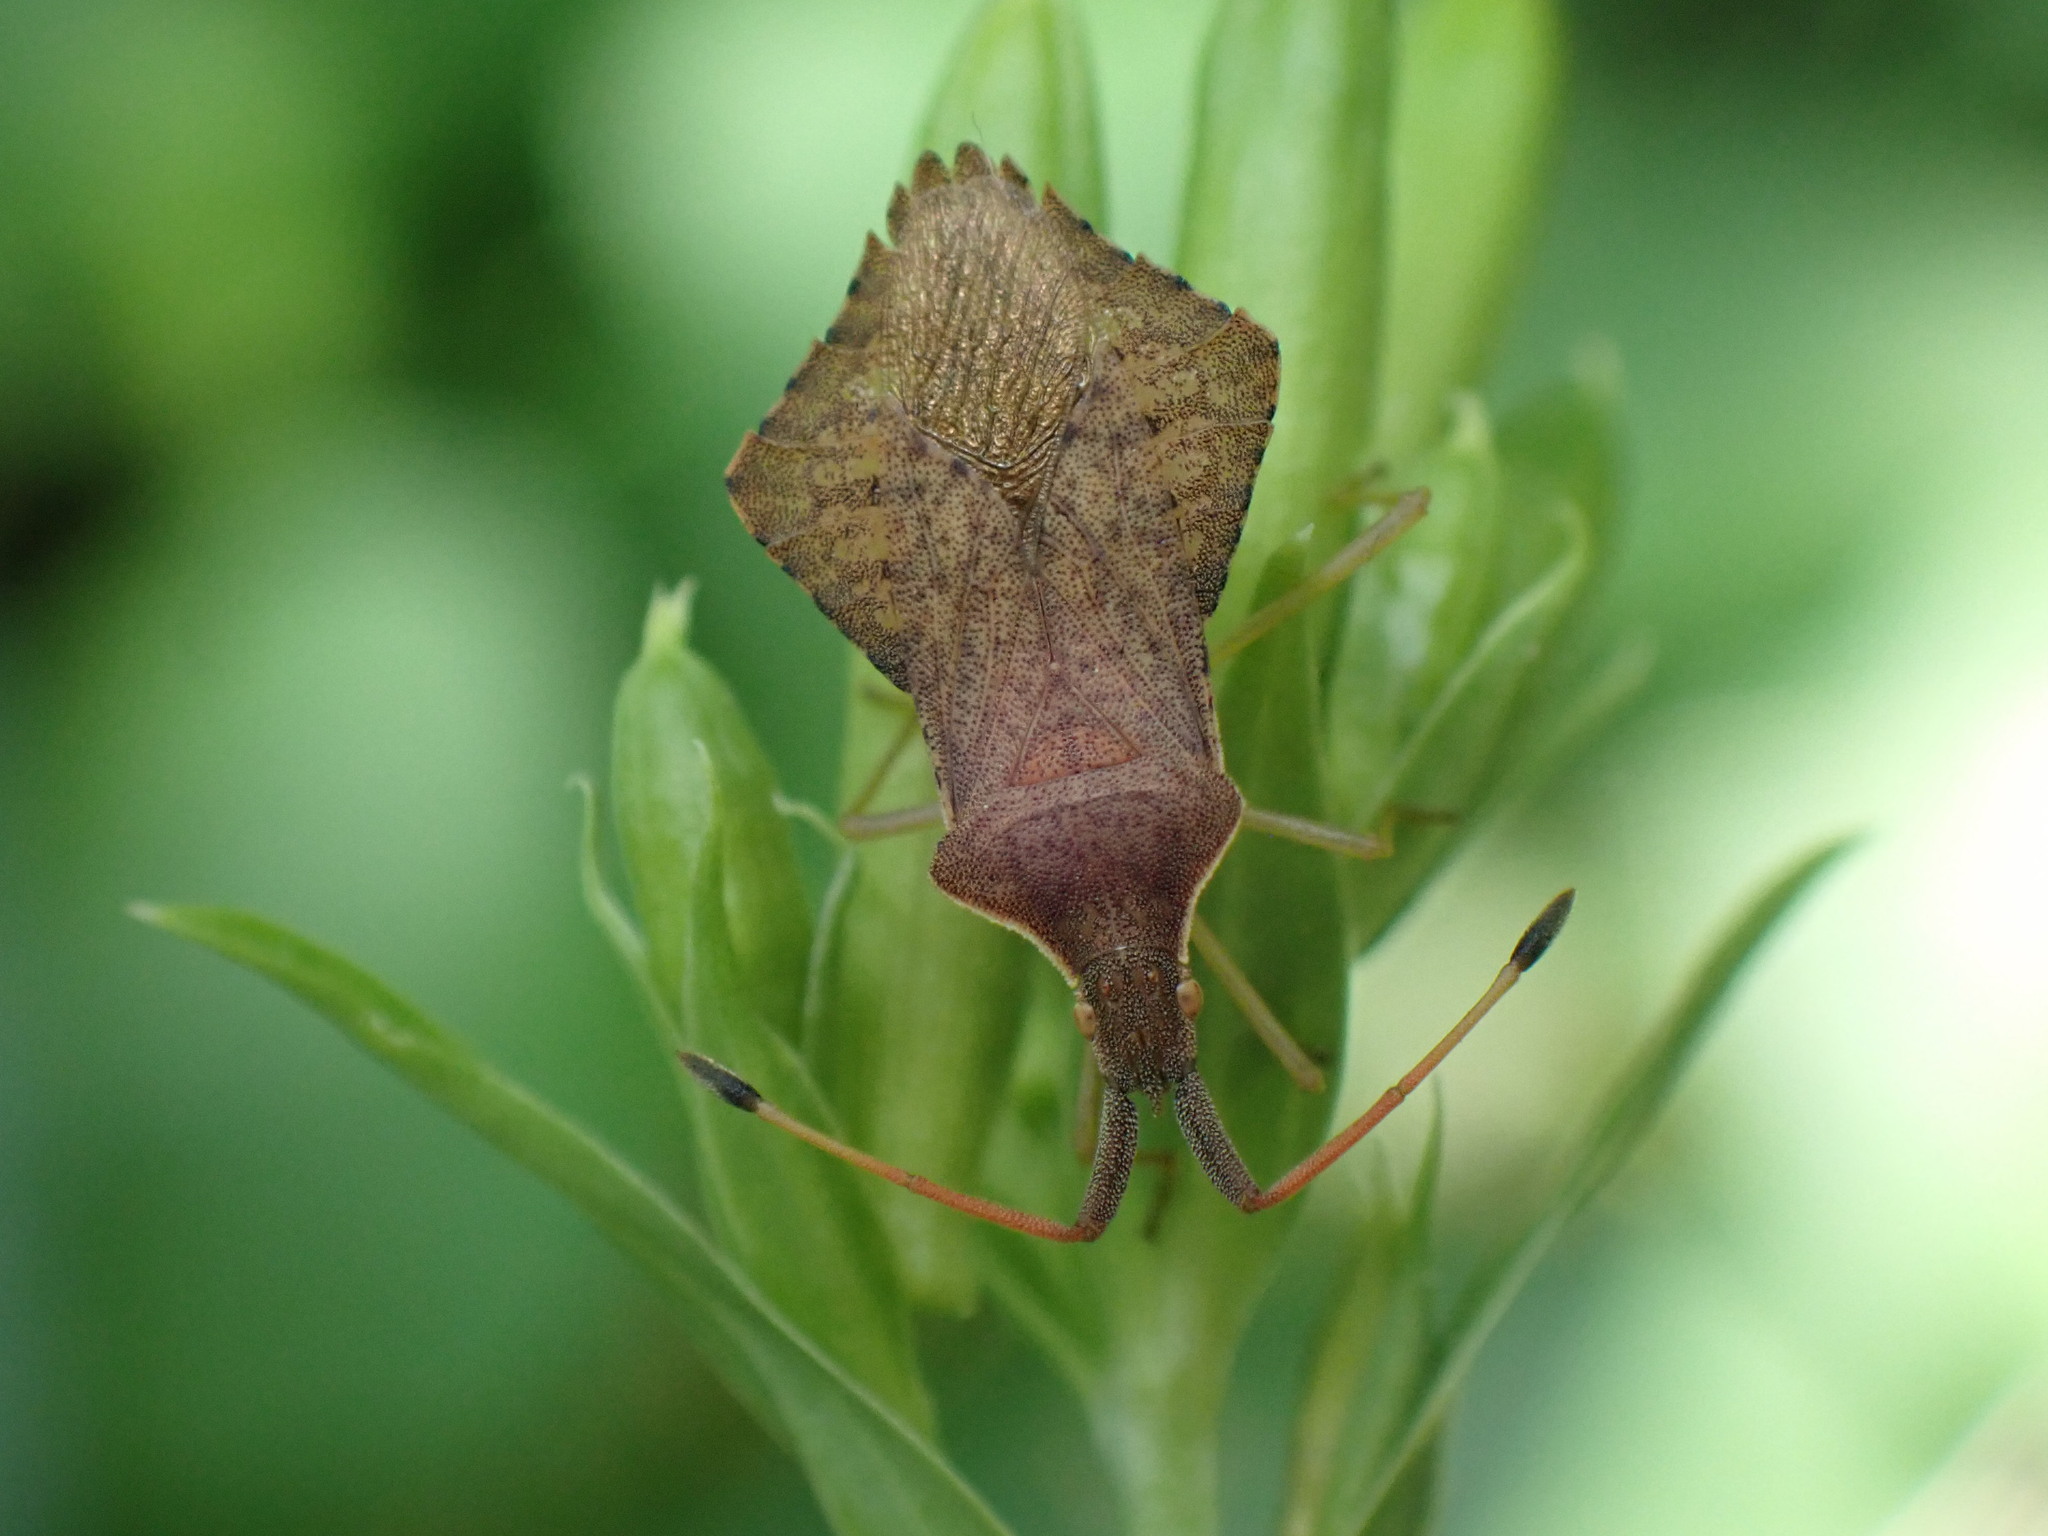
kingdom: Animalia
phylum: Arthropoda
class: Insecta
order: Hemiptera
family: Coreidae
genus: Syromastus
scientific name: Syromastus rhombeus
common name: Rhombic leatherbug
